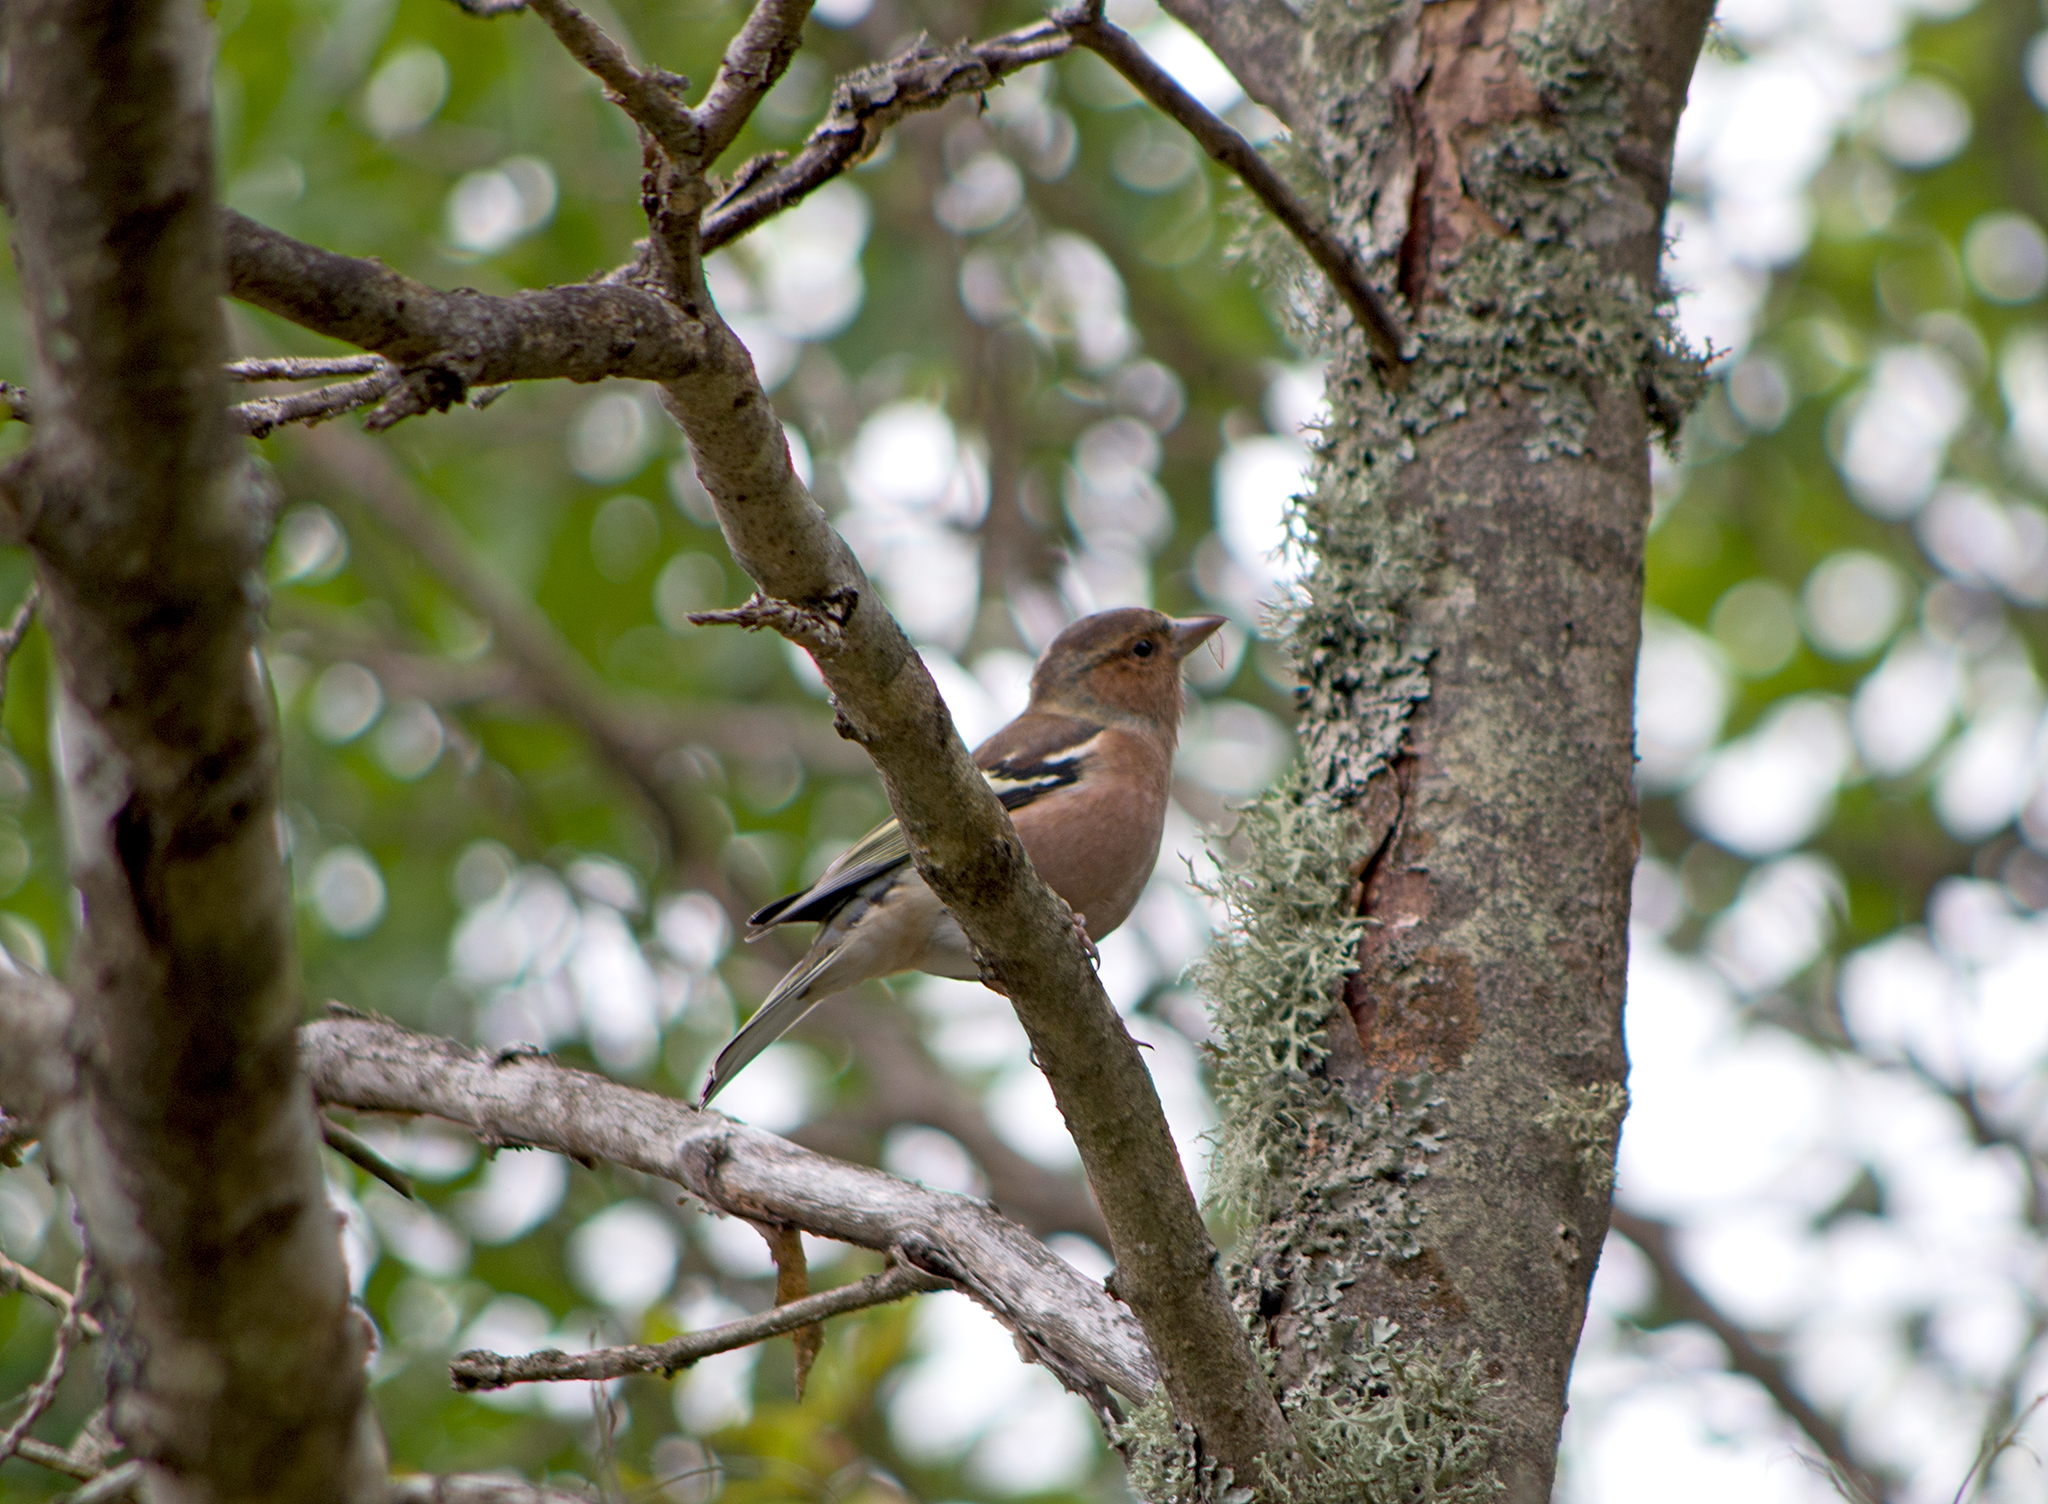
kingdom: Animalia
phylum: Chordata
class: Aves
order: Passeriformes
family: Fringillidae
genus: Fringilla
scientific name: Fringilla coelebs
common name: Common chaffinch
